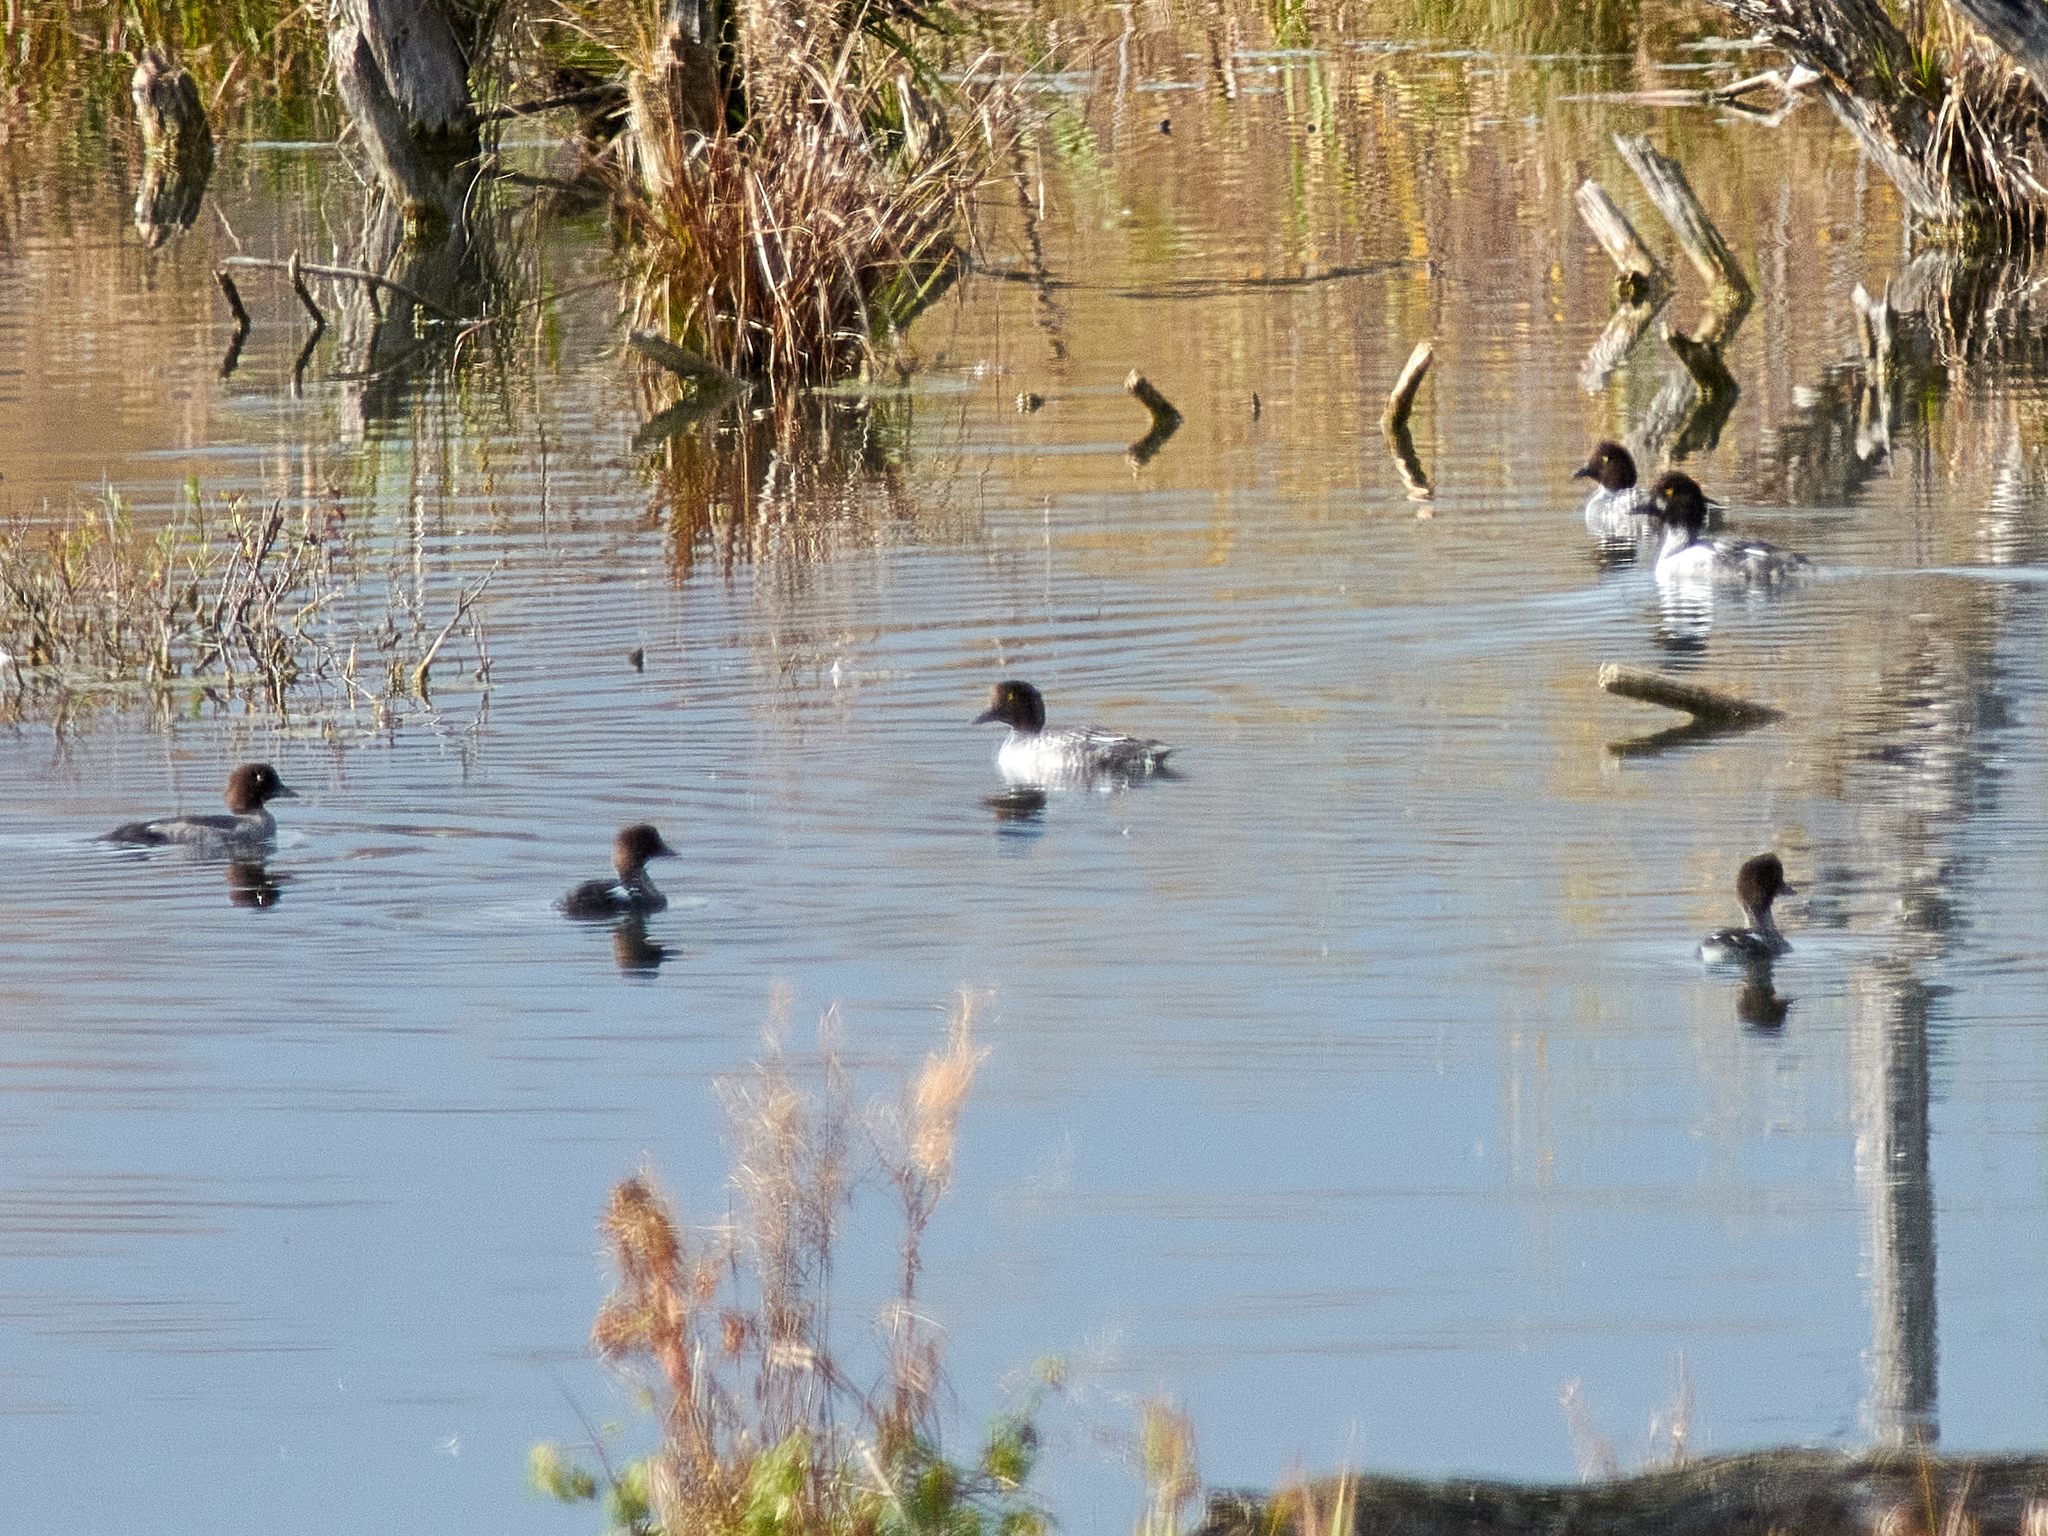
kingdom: Animalia
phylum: Chordata
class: Aves
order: Anseriformes
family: Anatidae
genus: Bucephala
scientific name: Bucephala clangula
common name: Common goldeneye
